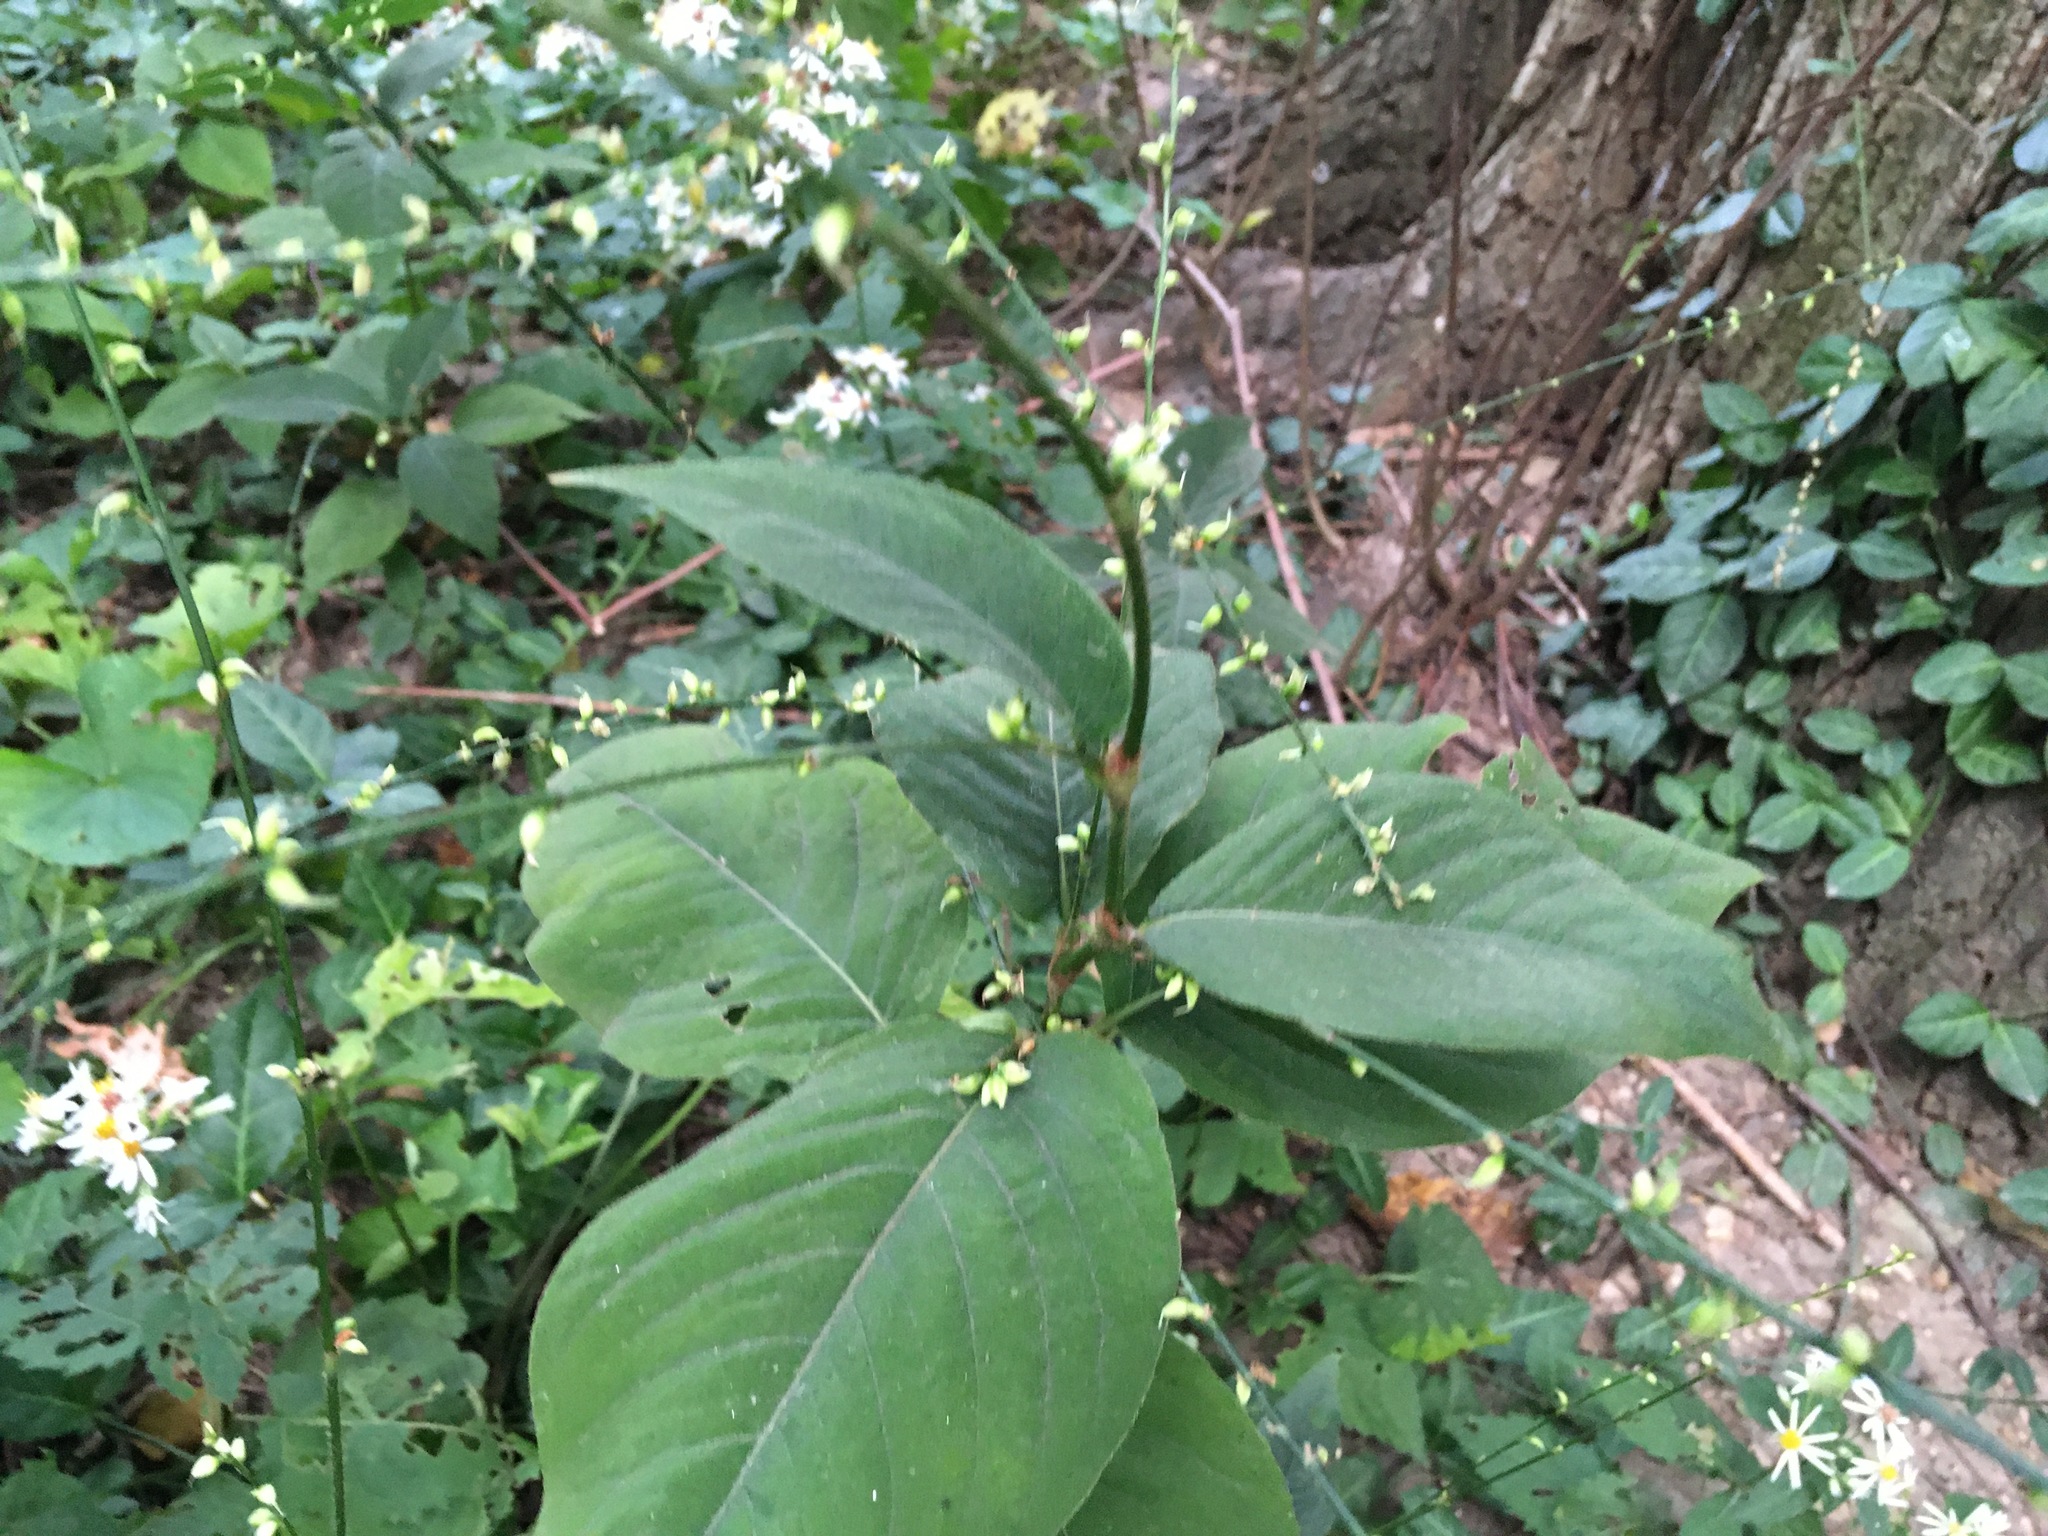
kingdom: Plantae
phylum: Tracheophyta
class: Magnoliopsida
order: Caryophyllales
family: Polygonaceae
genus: Persicaria
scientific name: Persicaria virginiana
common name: Jumpseed
